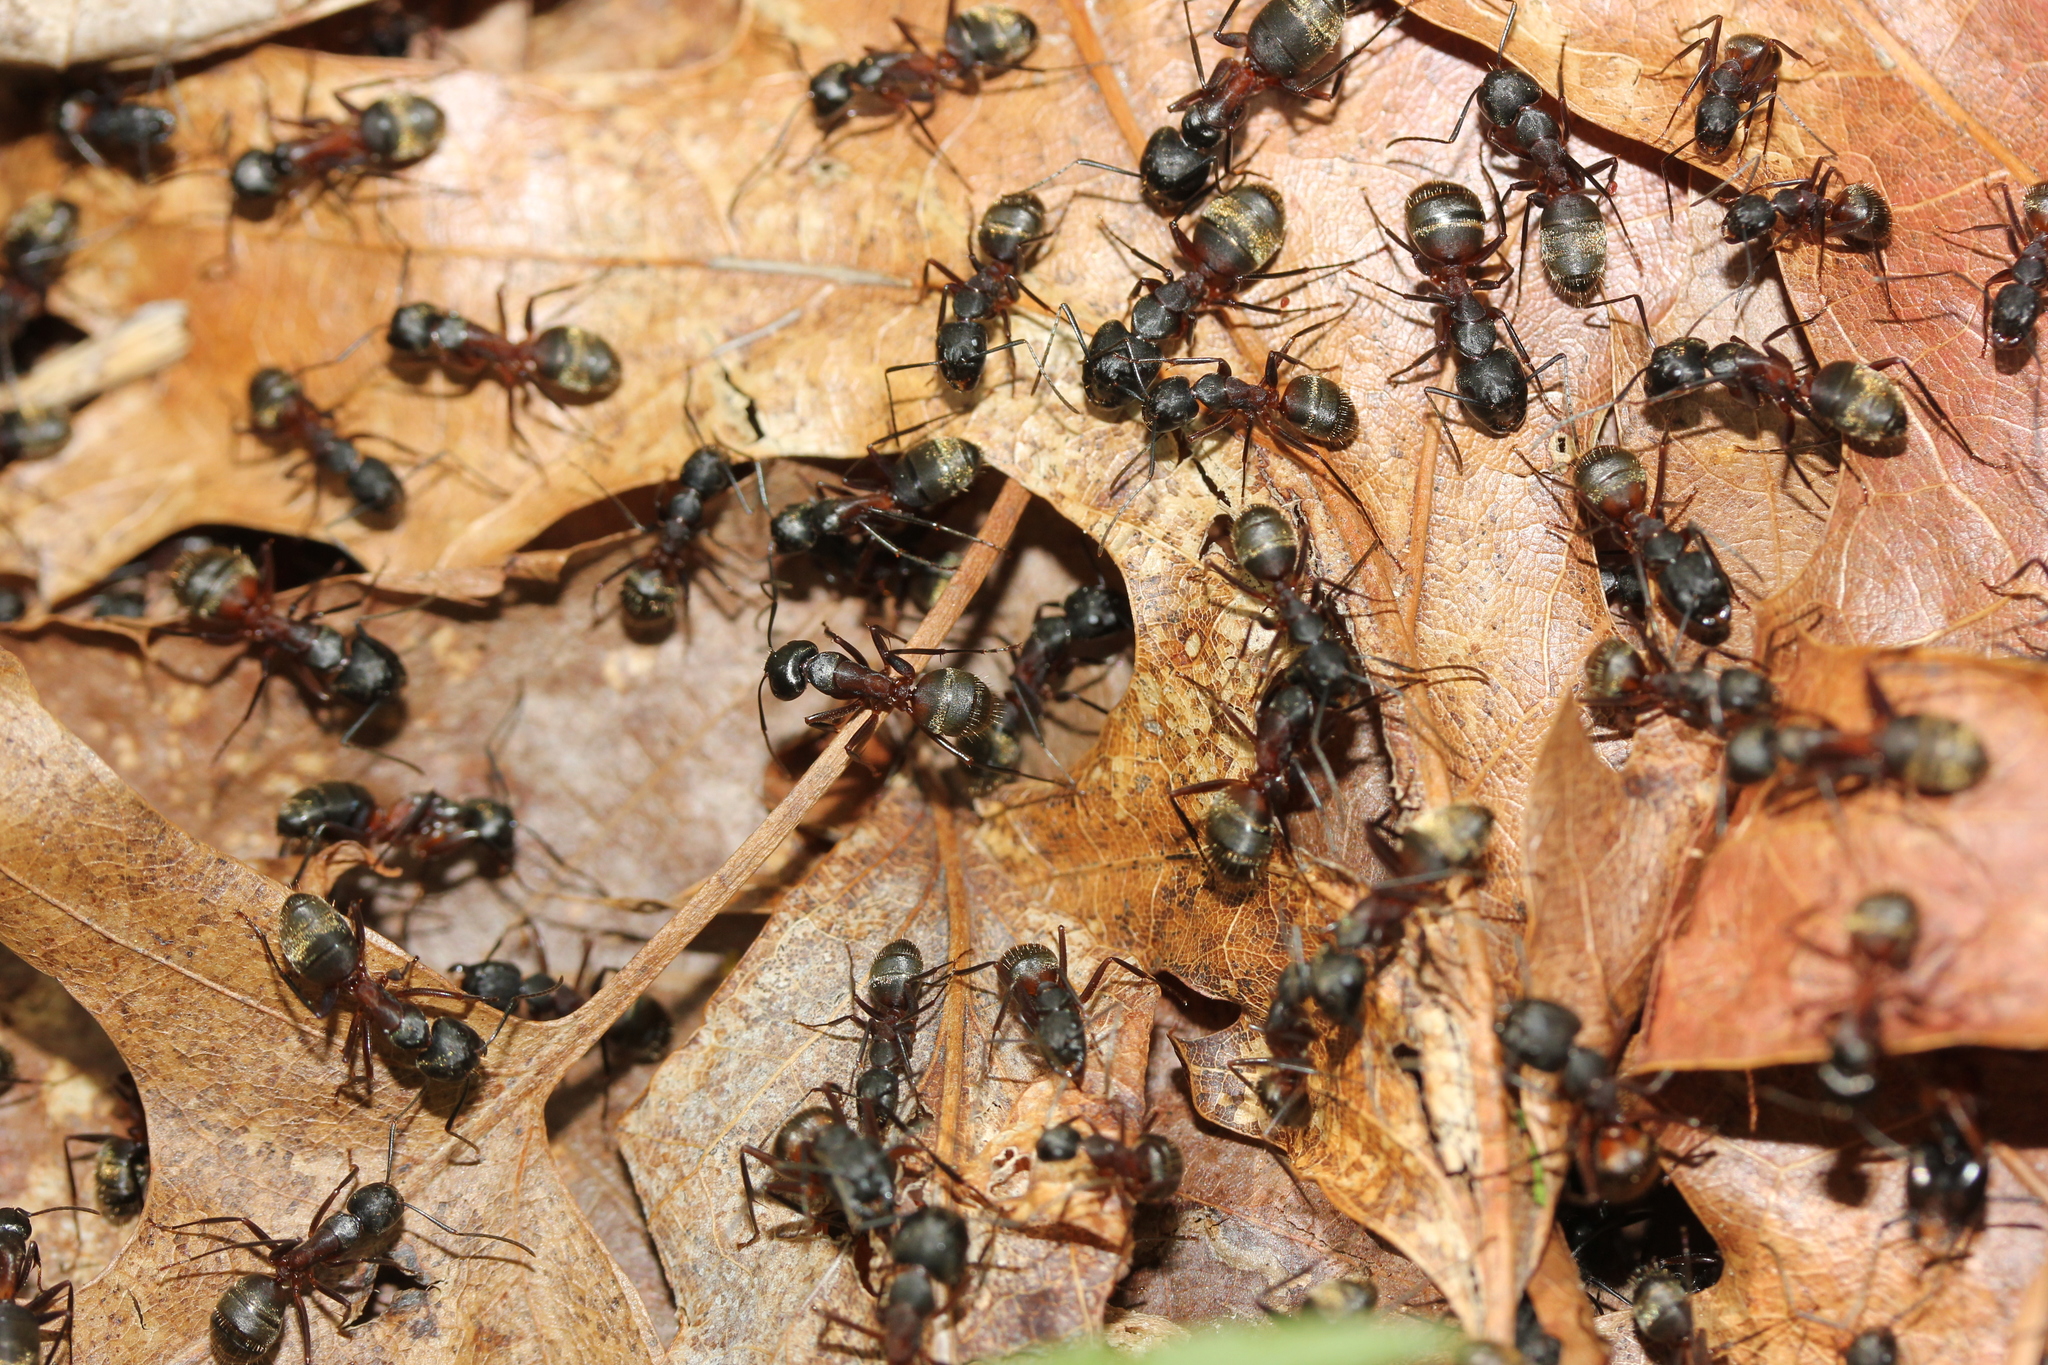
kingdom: Animalia
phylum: Arthropoda
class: Insecta
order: Hymenoptera
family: Formicidae
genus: Camponotus
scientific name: Camponotus chromaiodes
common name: Red carpenter ant
